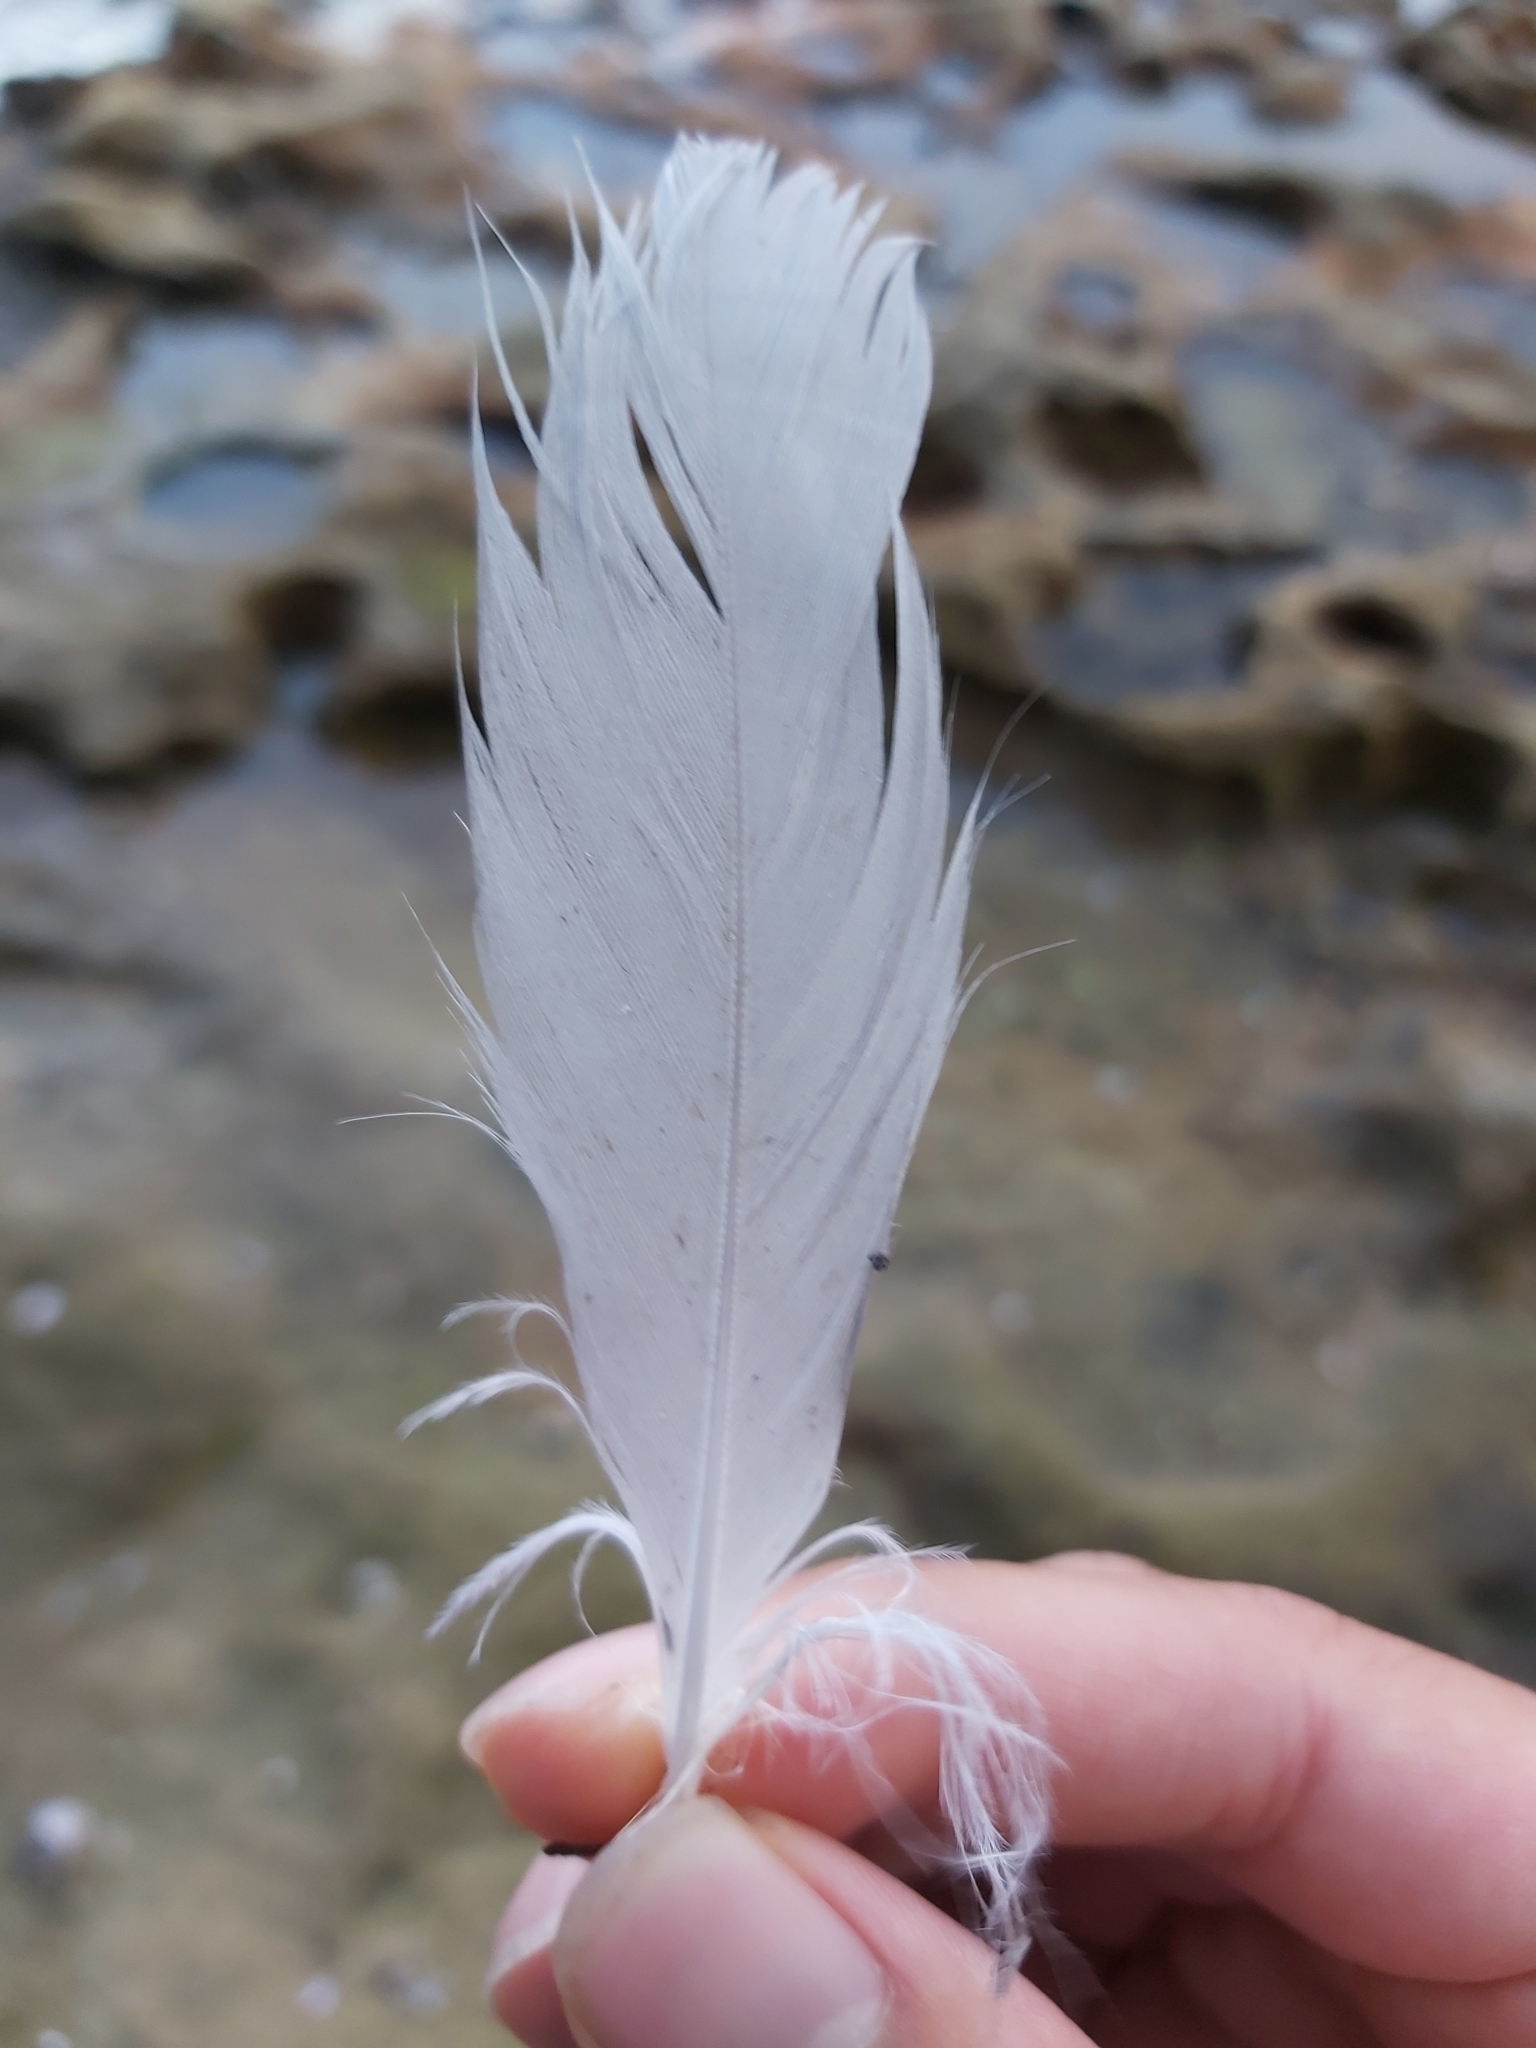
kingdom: Animalia
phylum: Chordata
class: Aves
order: Charadriiformes
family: Laridae
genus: Chroicocephalus
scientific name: Chroicocephalus novaehollandiae
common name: Silver gull
